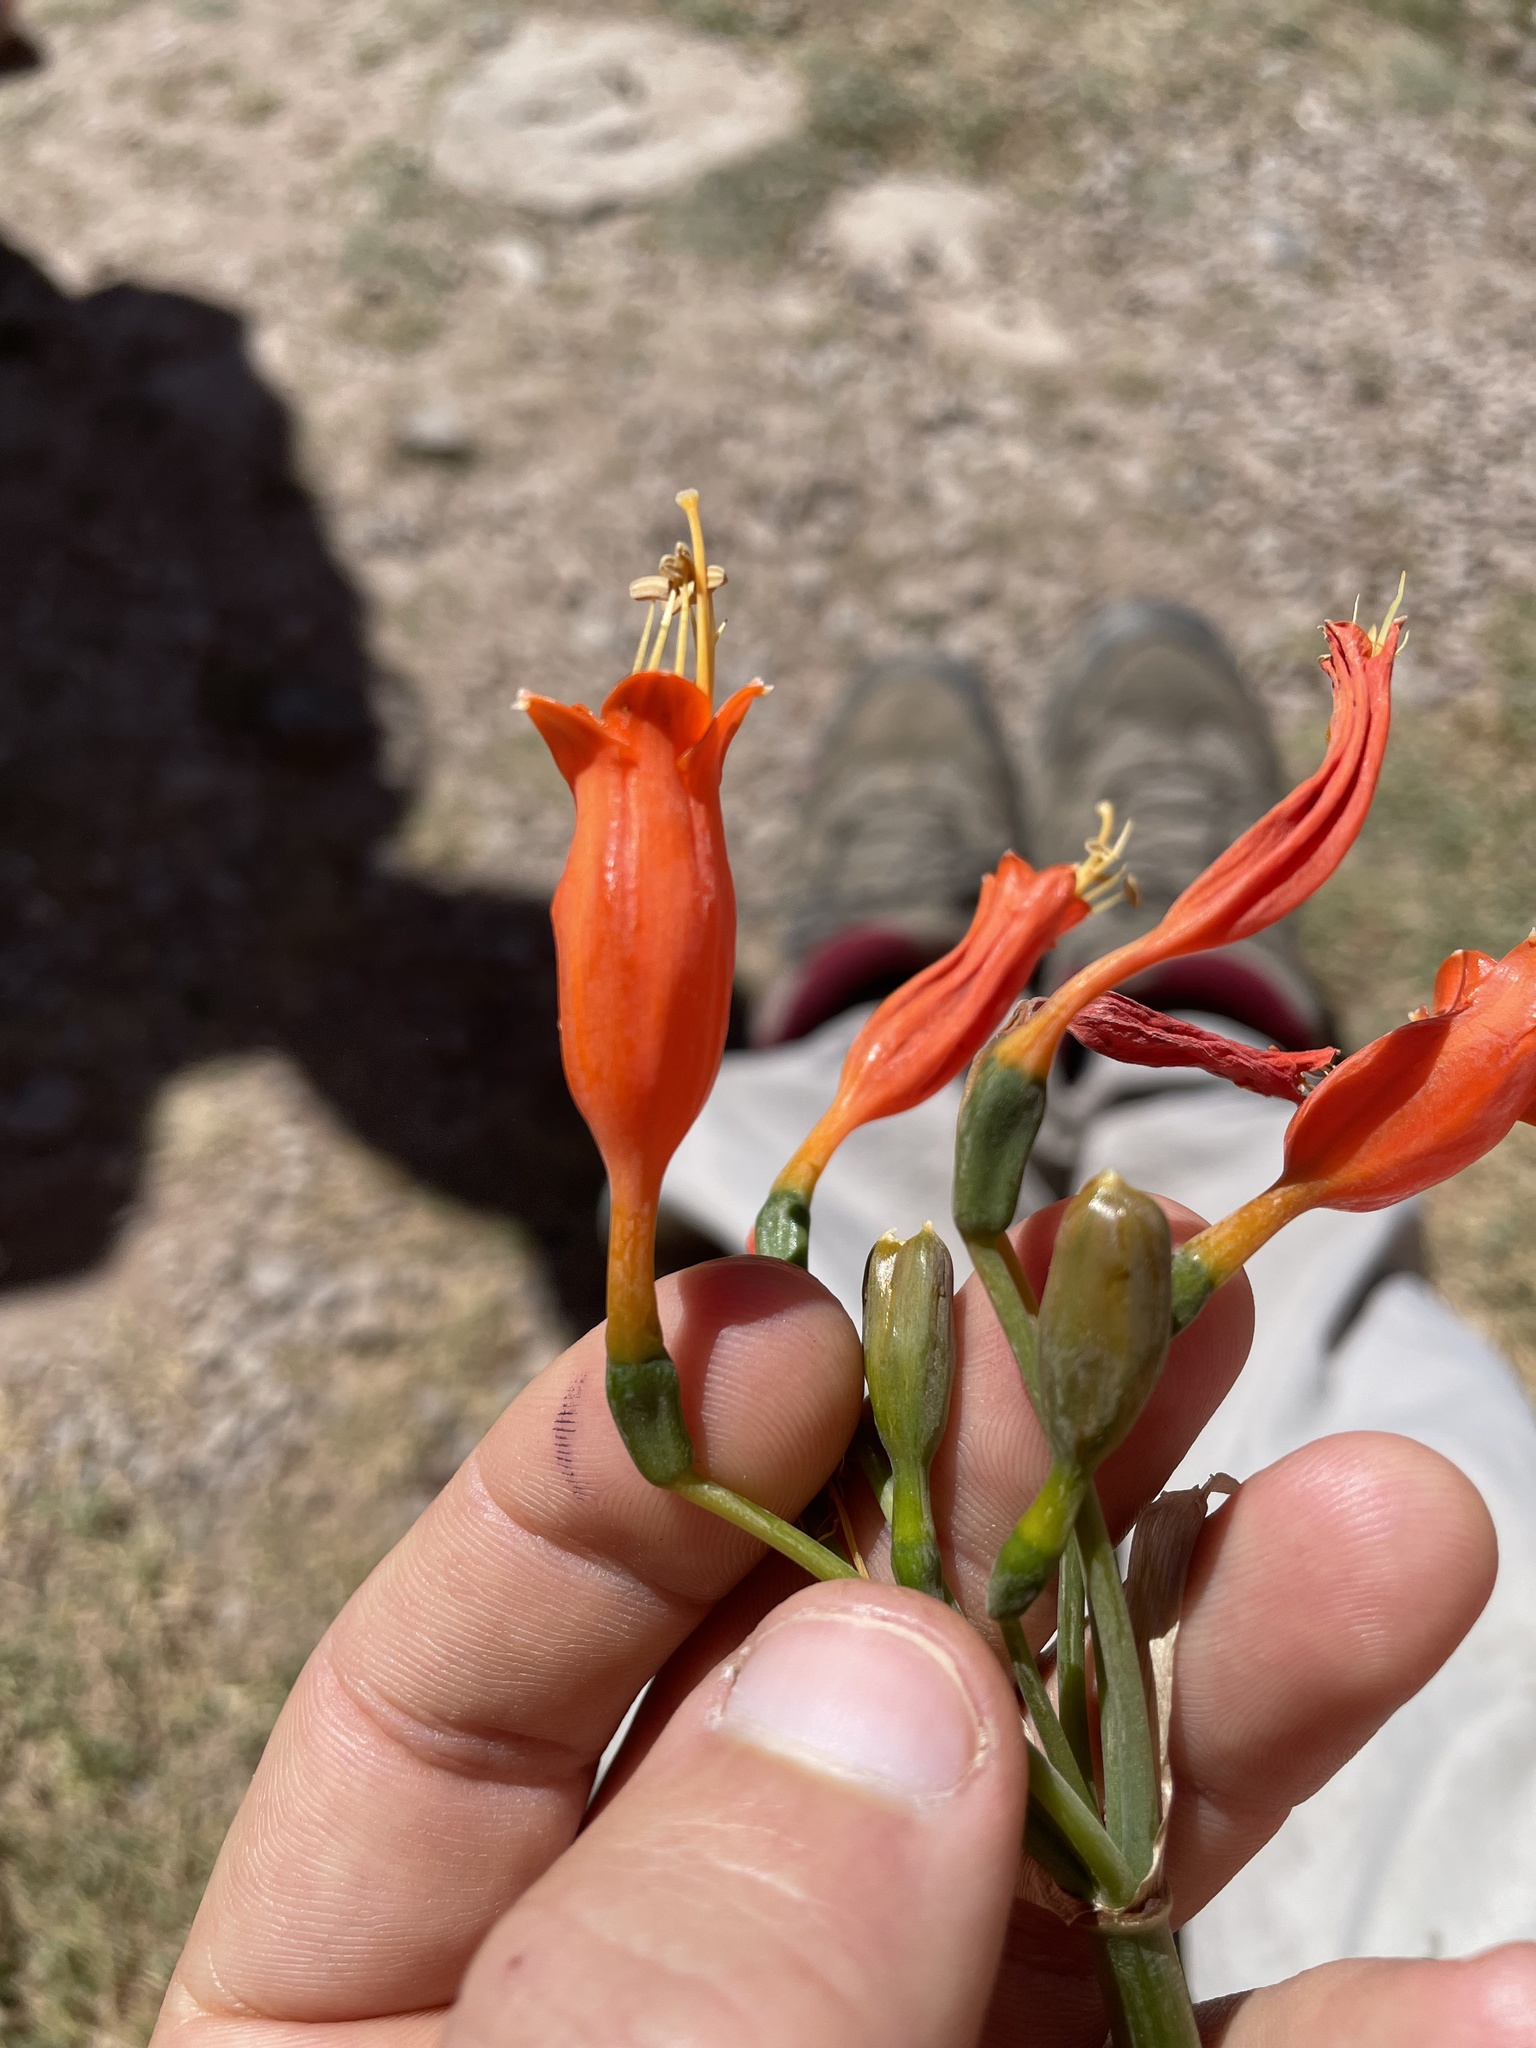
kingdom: Plantae
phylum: Tracheophyta
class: Liliopsida
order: Asparagales
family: Amaryllidaceae
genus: Stenomesson
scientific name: Stenomesson miniatum
